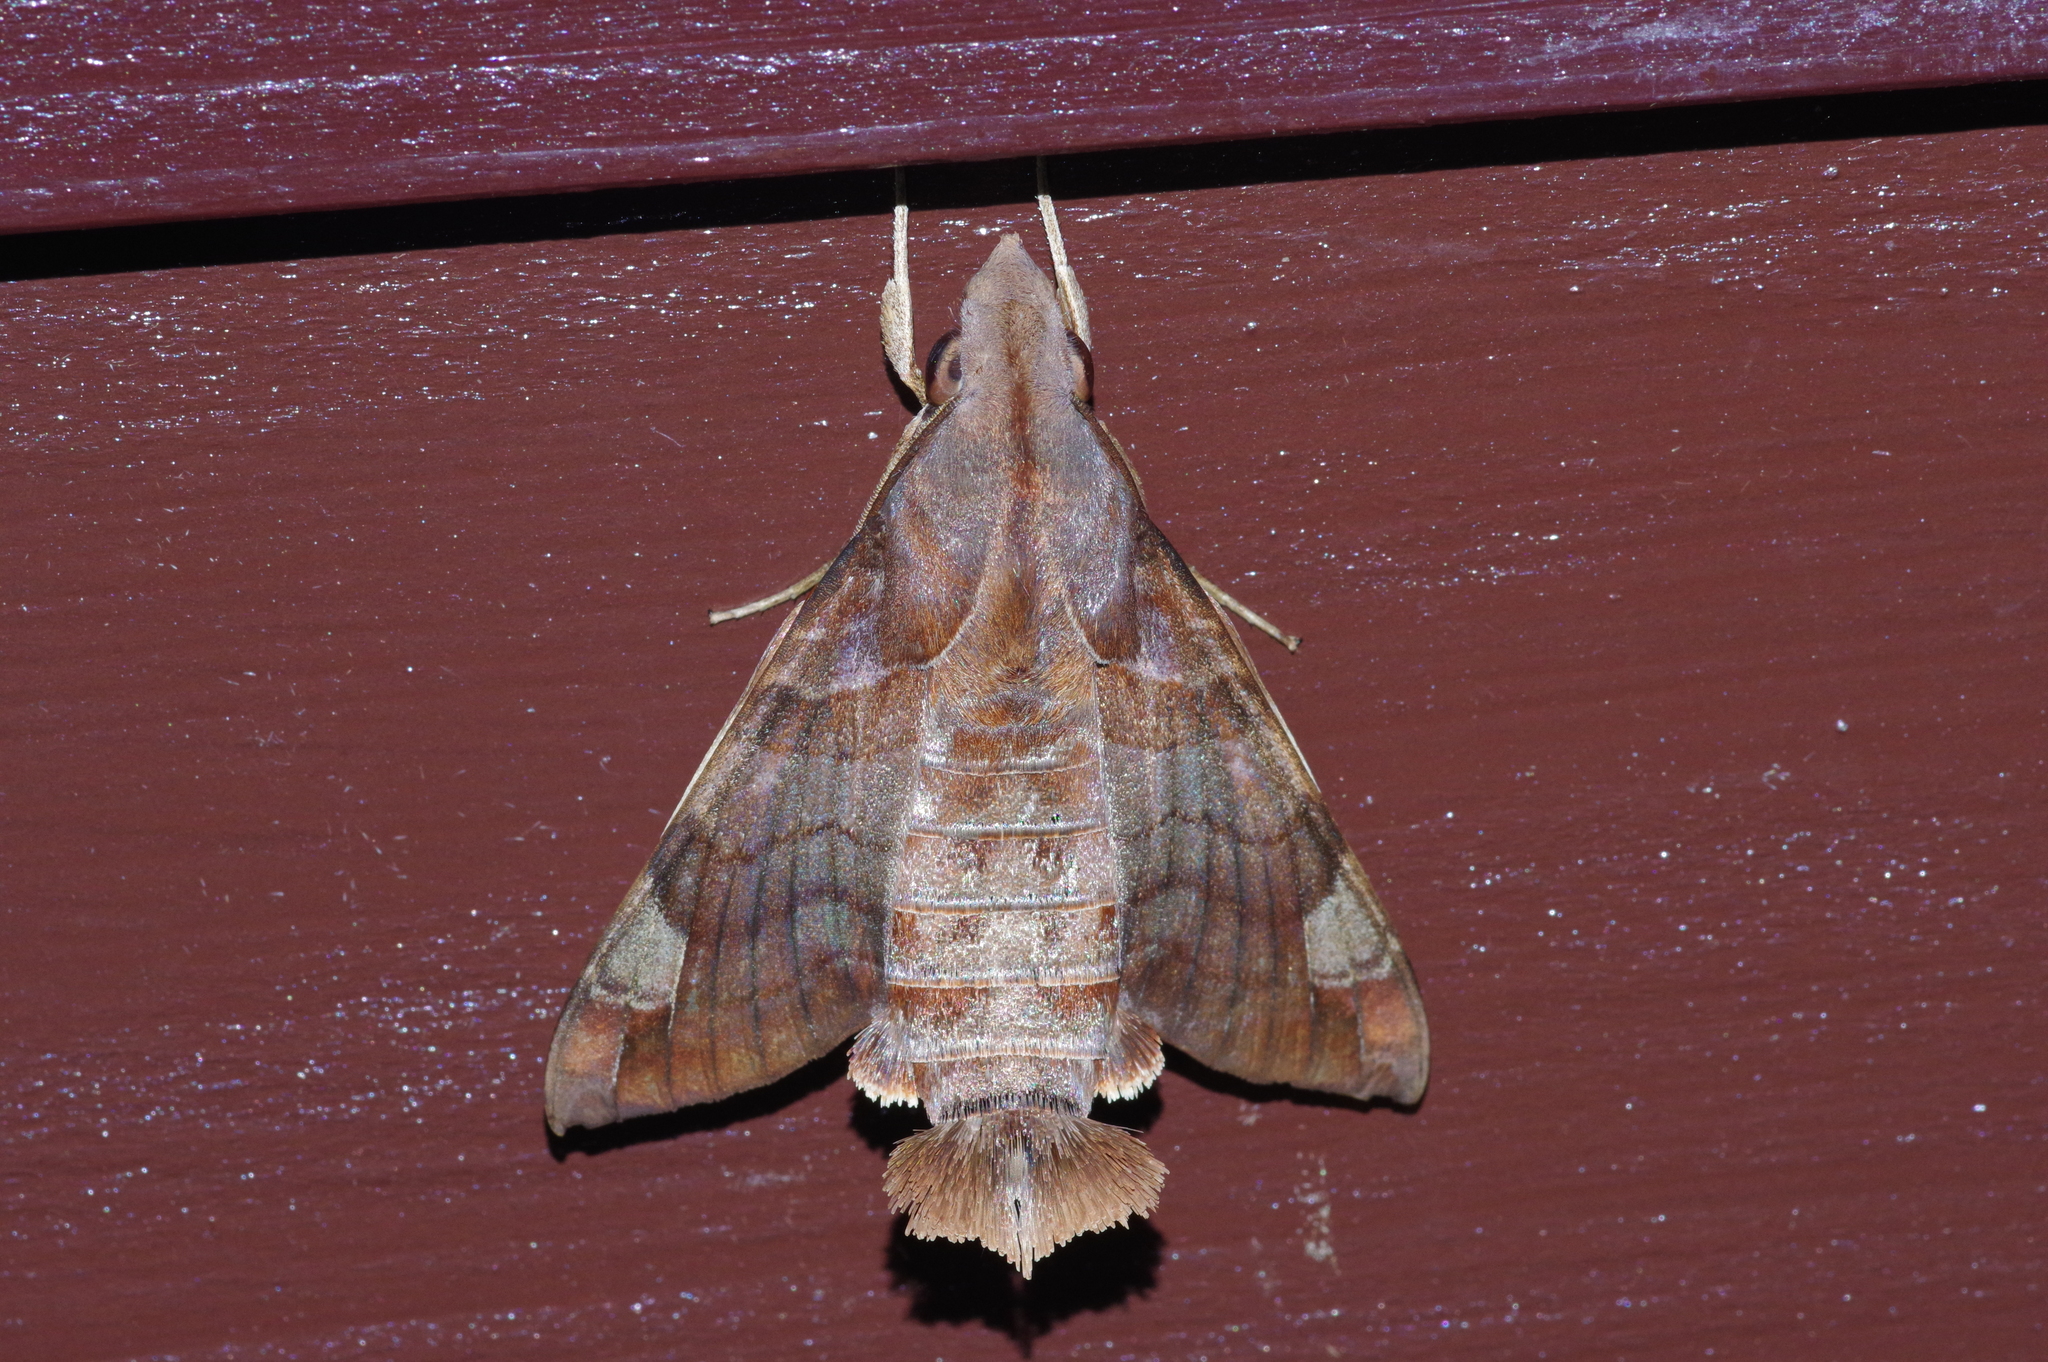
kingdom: Animalia
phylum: Arthropoda
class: Insecta
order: Lepidoptera
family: Sphingidae
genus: Macroglossum
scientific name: Macroglossum saga
